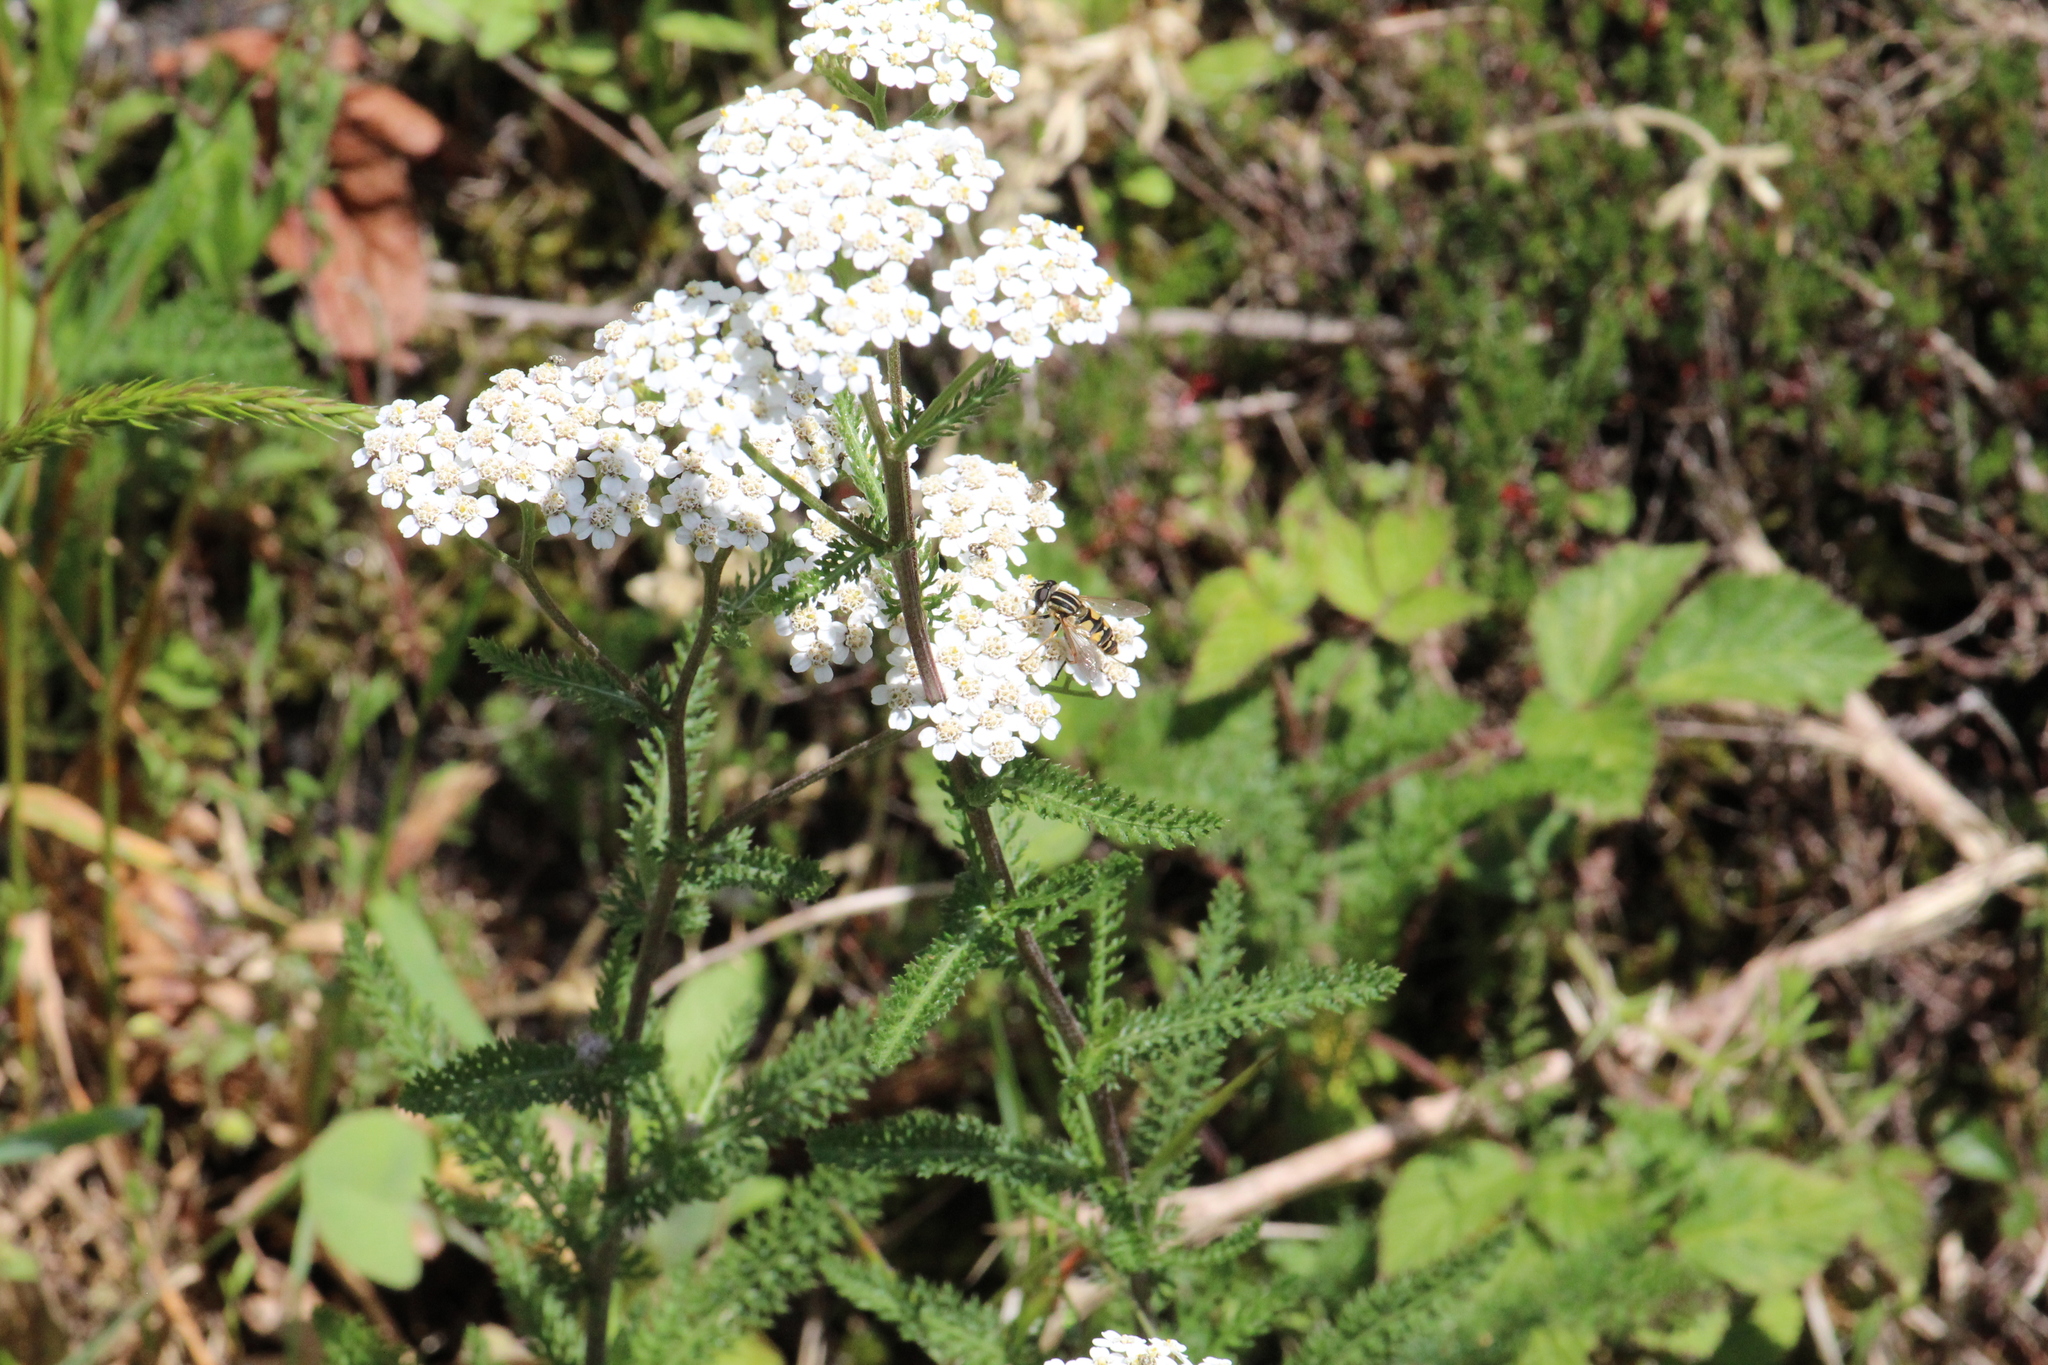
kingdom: Animalia
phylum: Arthropoda
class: Insecta
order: Diptera
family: Syrphidae
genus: Helophilus
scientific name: Helophilus pendulus
